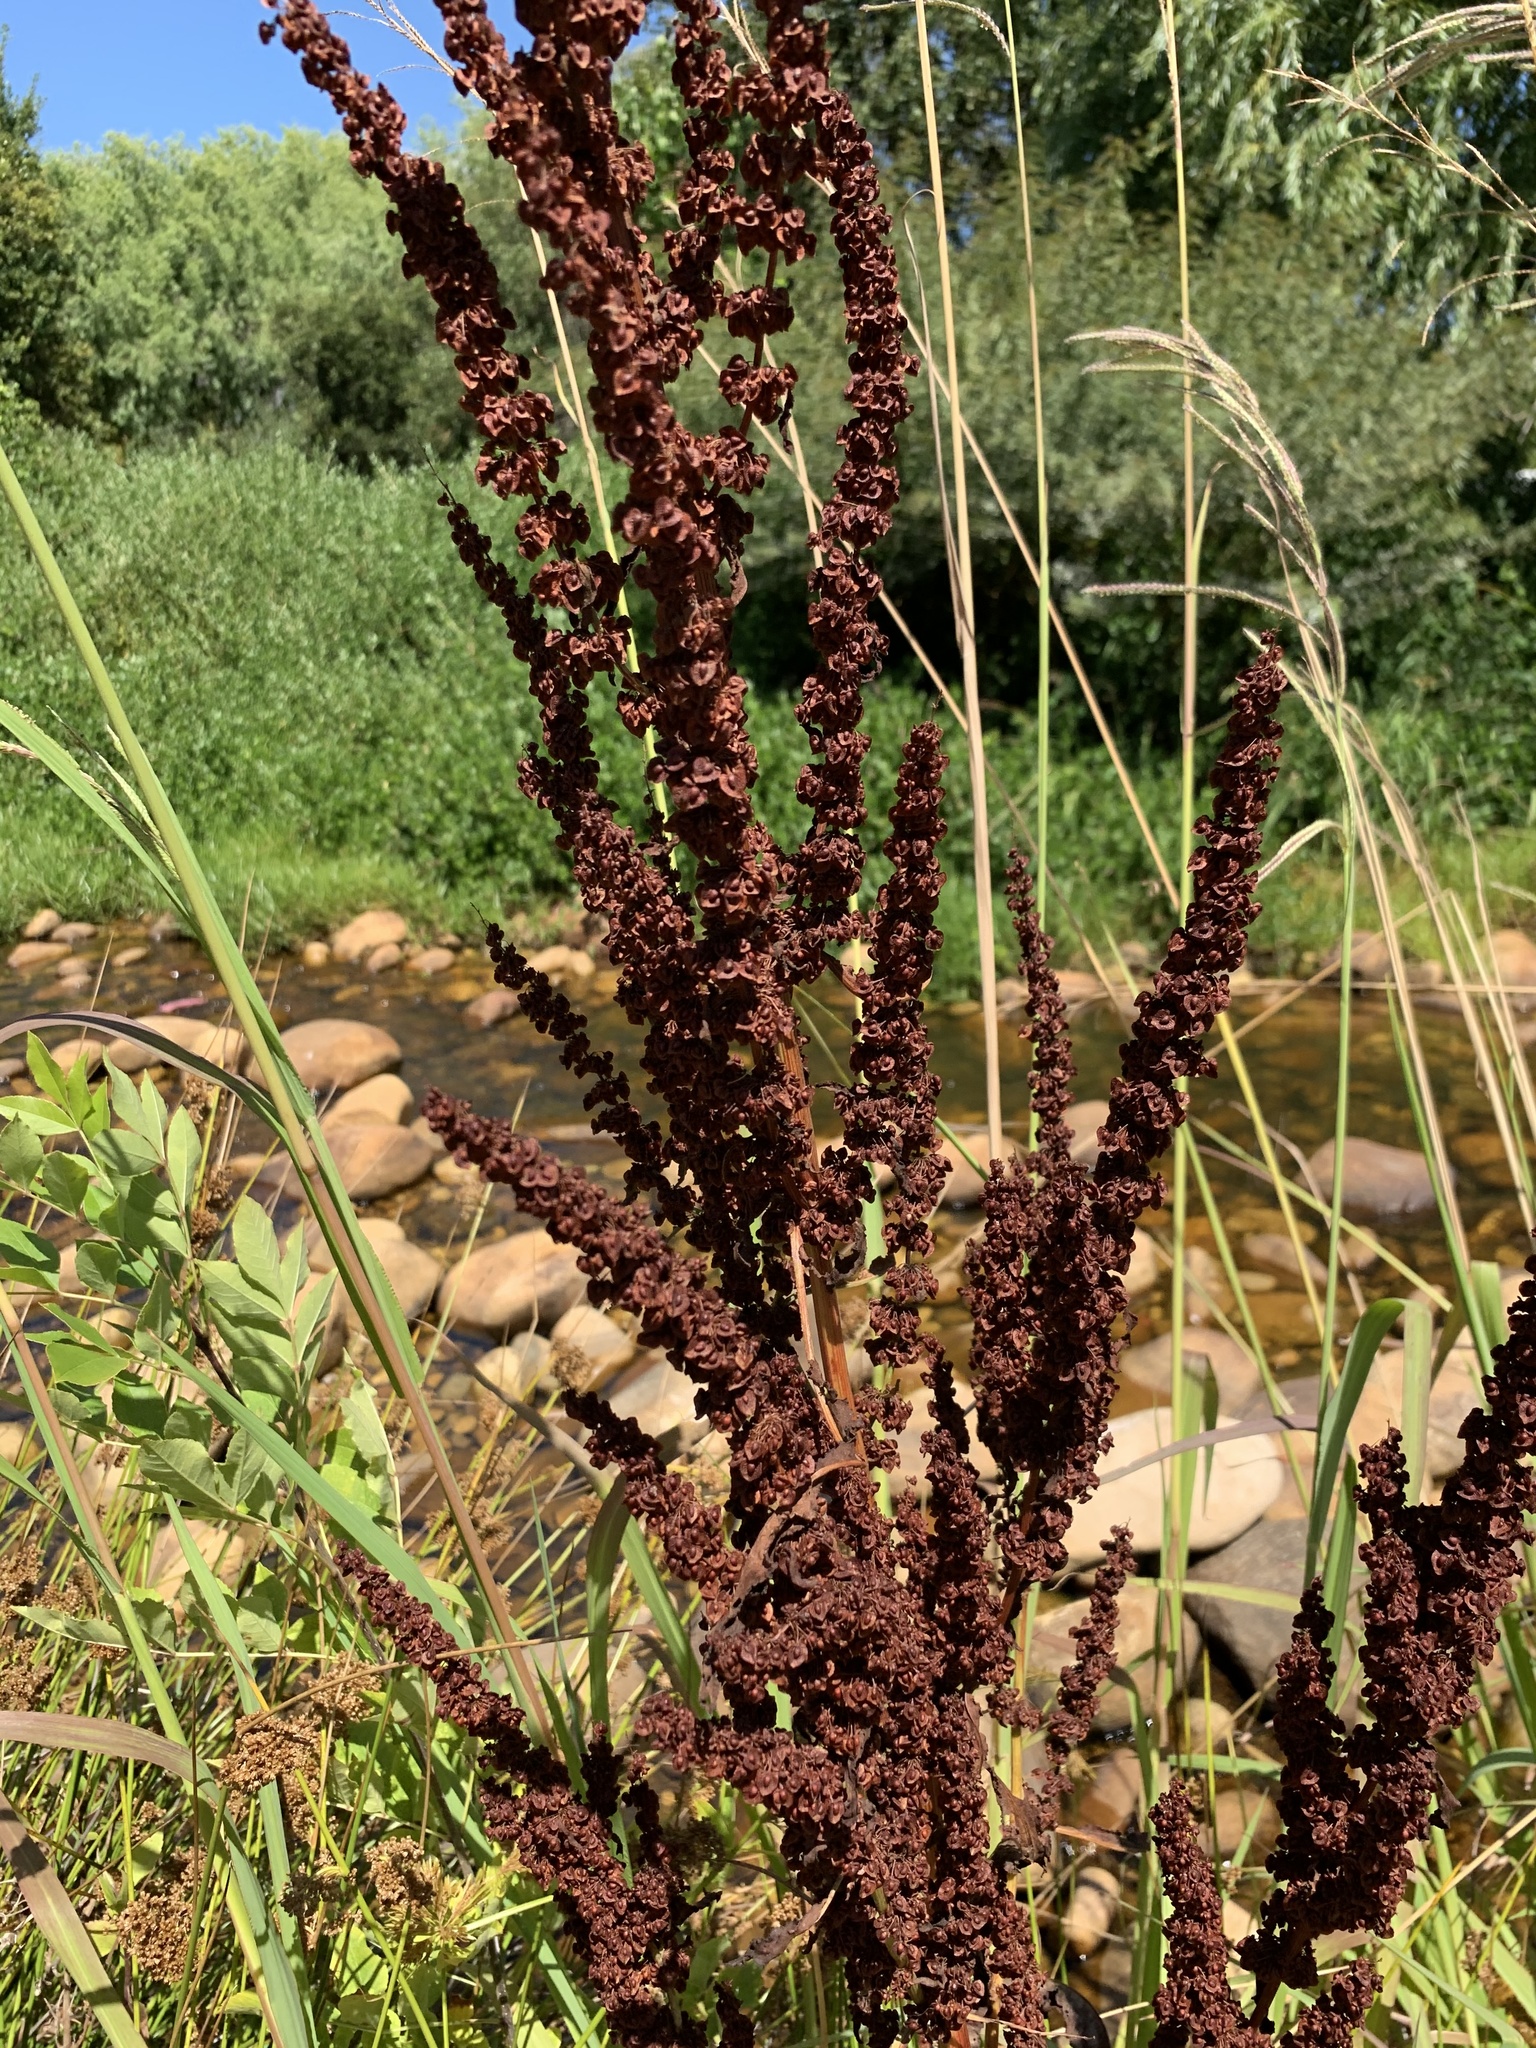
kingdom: Plantae
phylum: Tracheophyta
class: Magnoliopsida
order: Caryophyllales
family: Polygonaceae
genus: Rumex
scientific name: Rumex crispus
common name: Curled dock
